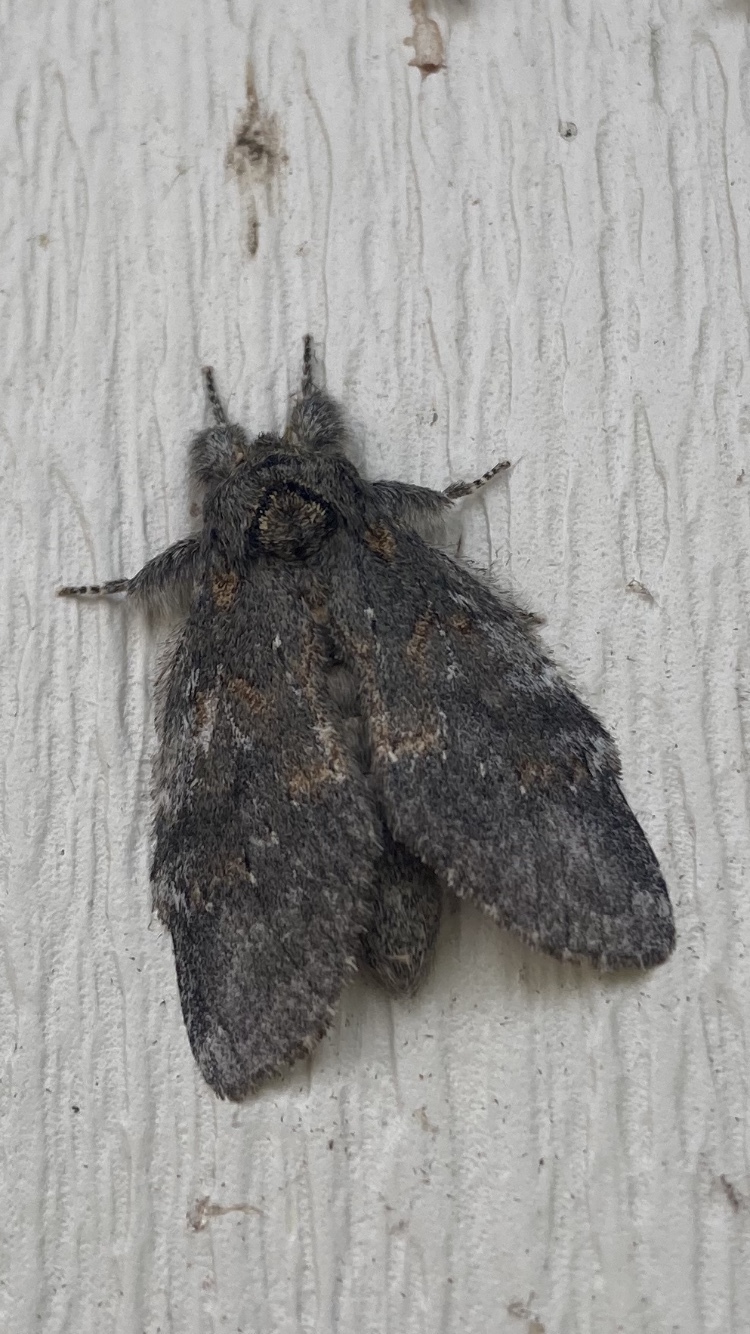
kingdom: Animalia
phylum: Arthropoda
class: Insecta
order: Lepidoptera
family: Notodontidae
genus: Peridea
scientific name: Peridea angulosa
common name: Angulose prominent
